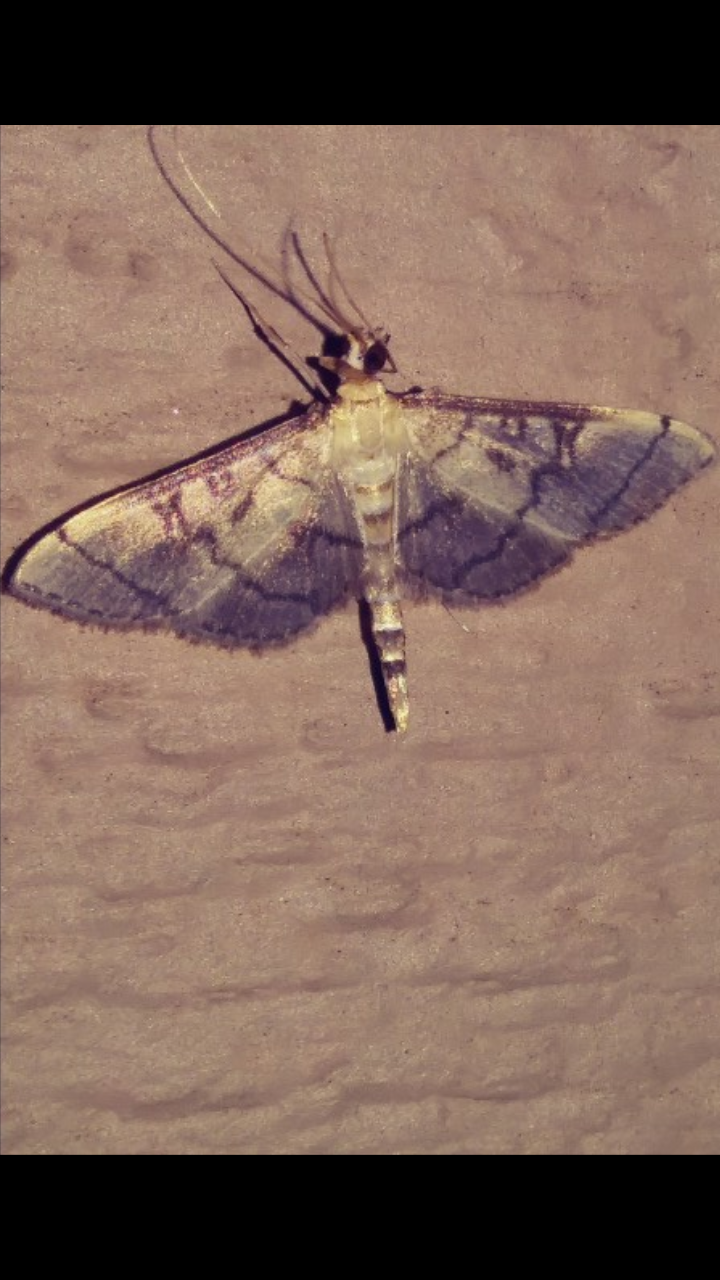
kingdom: Animalia
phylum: Arthropoda
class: Insecta
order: Lepidoptera
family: Crambidae
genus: Lamprosema
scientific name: Lamprosema Blepharomastix ranalis
